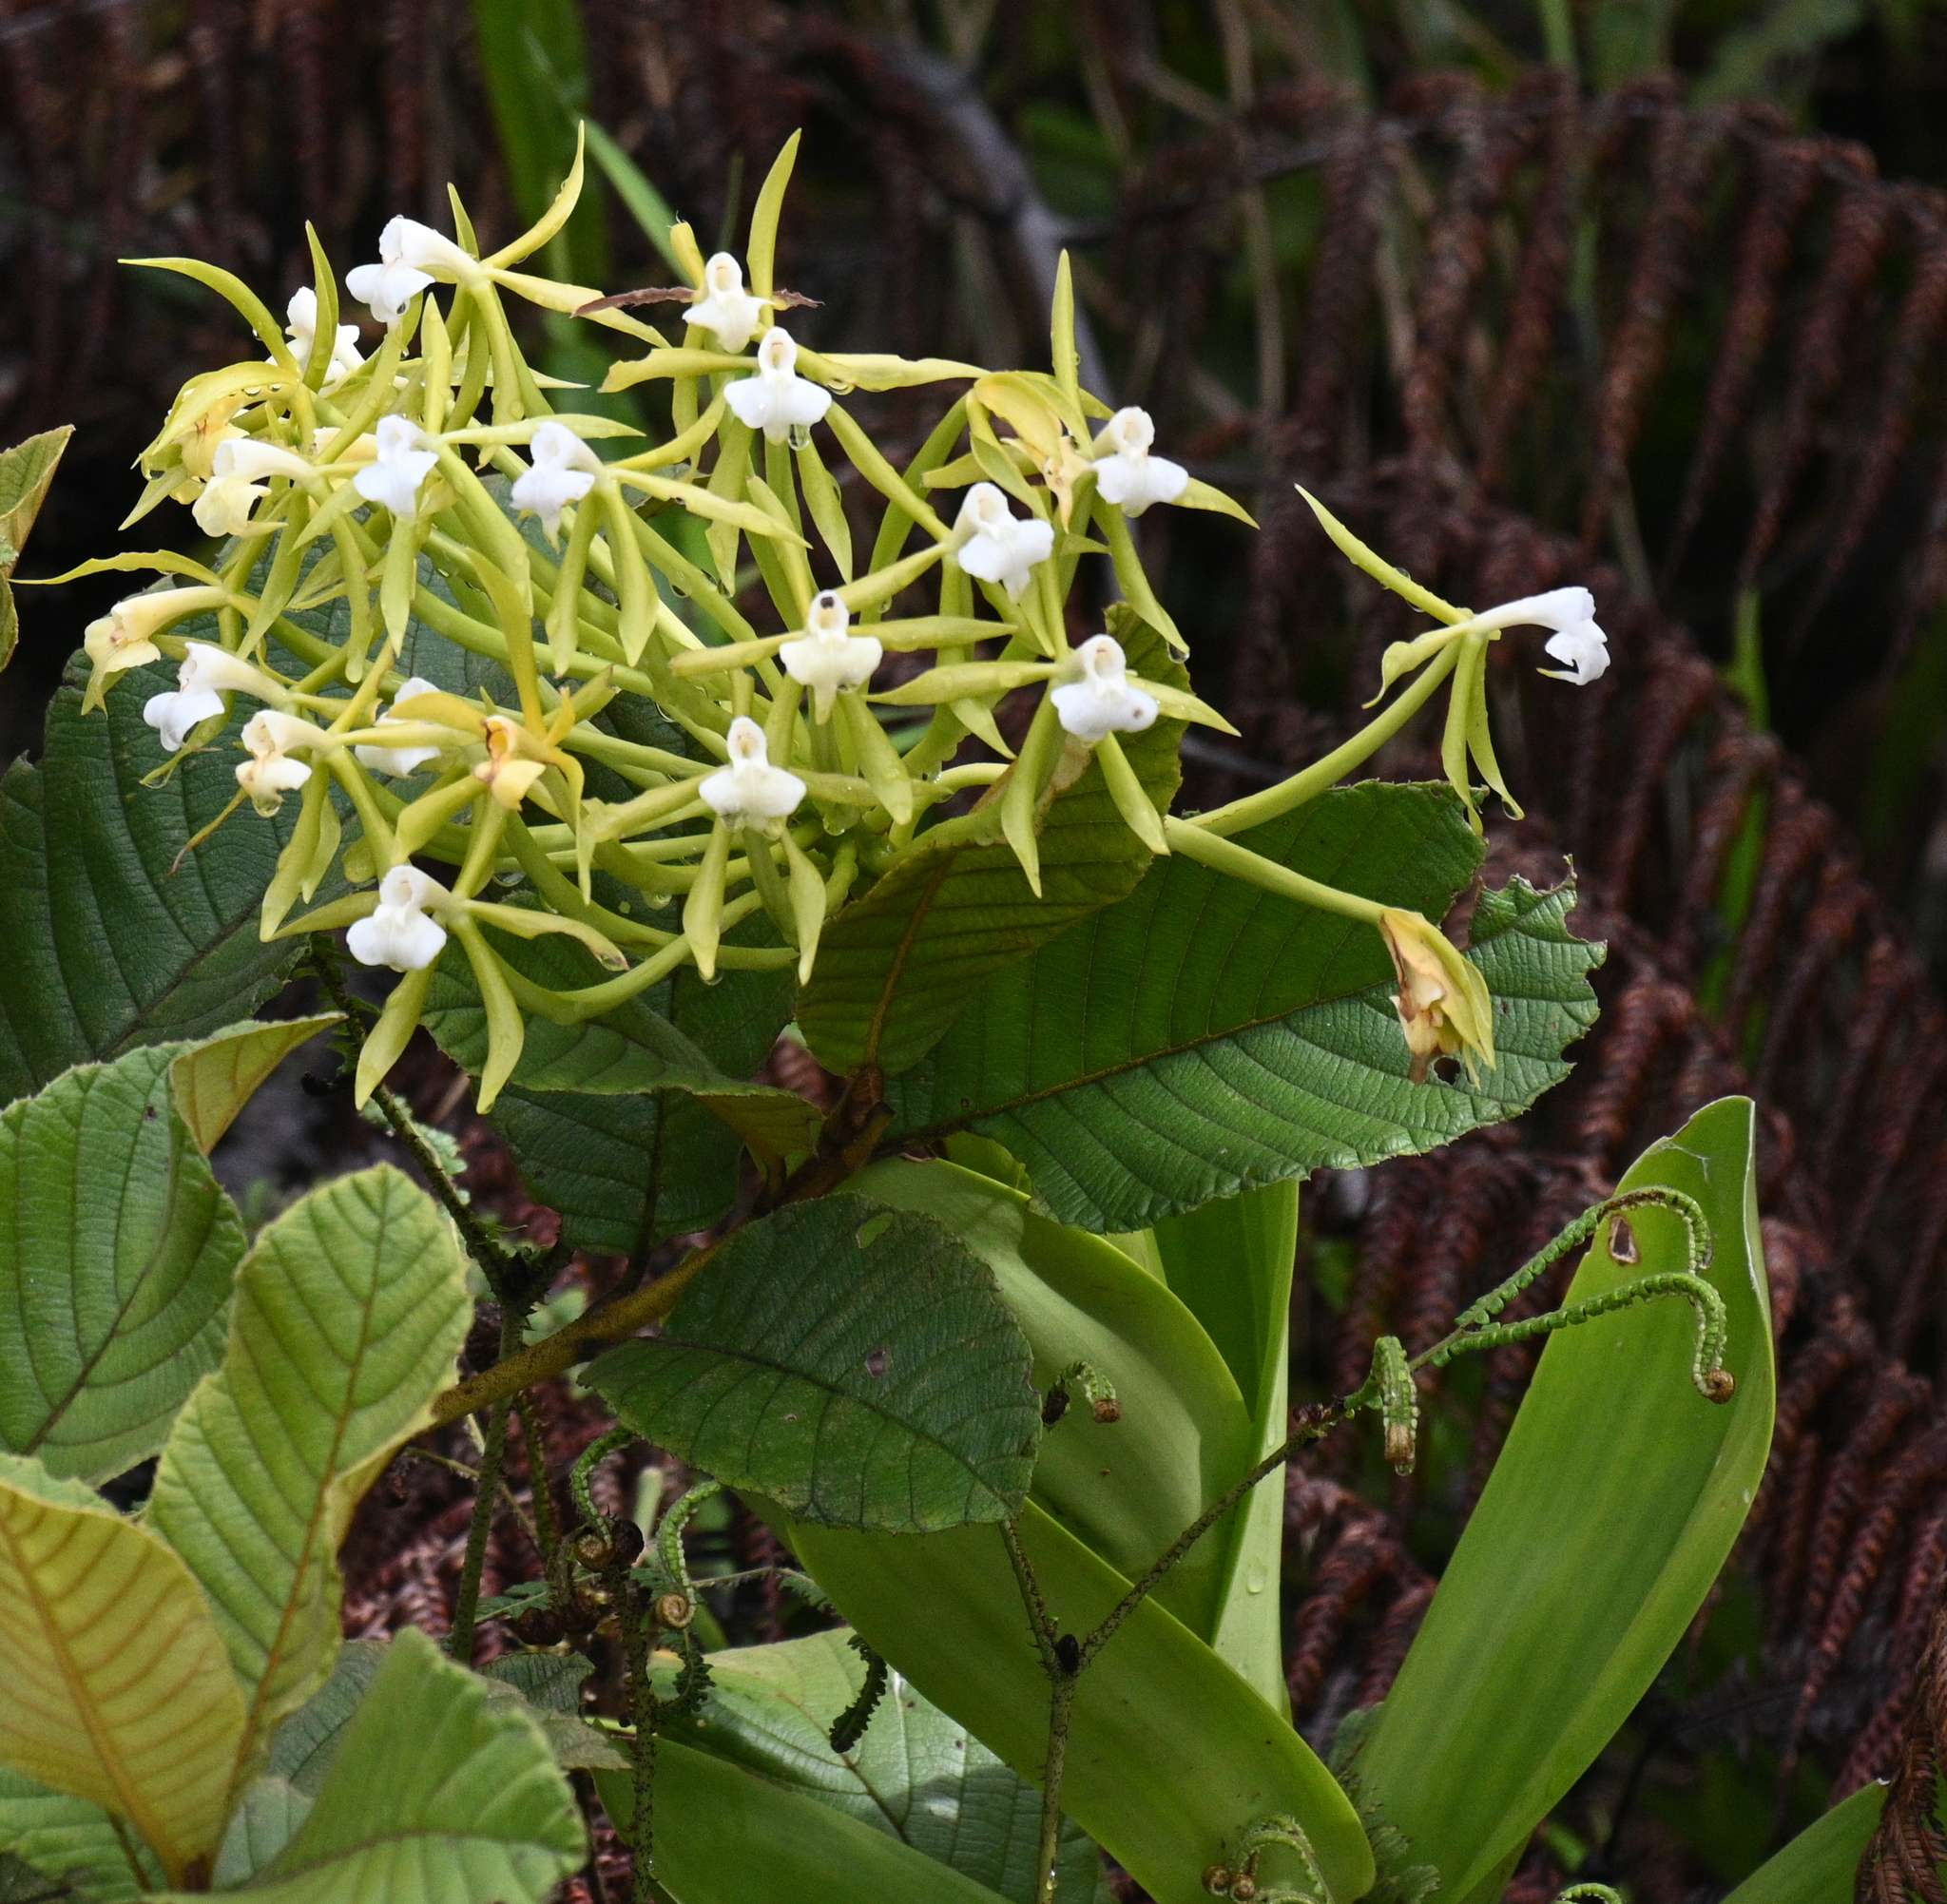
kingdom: Plantae
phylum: Tracheophyta
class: Liliopsida
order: Asparagales
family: Orchidaceae
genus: Epidendrum
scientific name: Epidendrum lacustre
